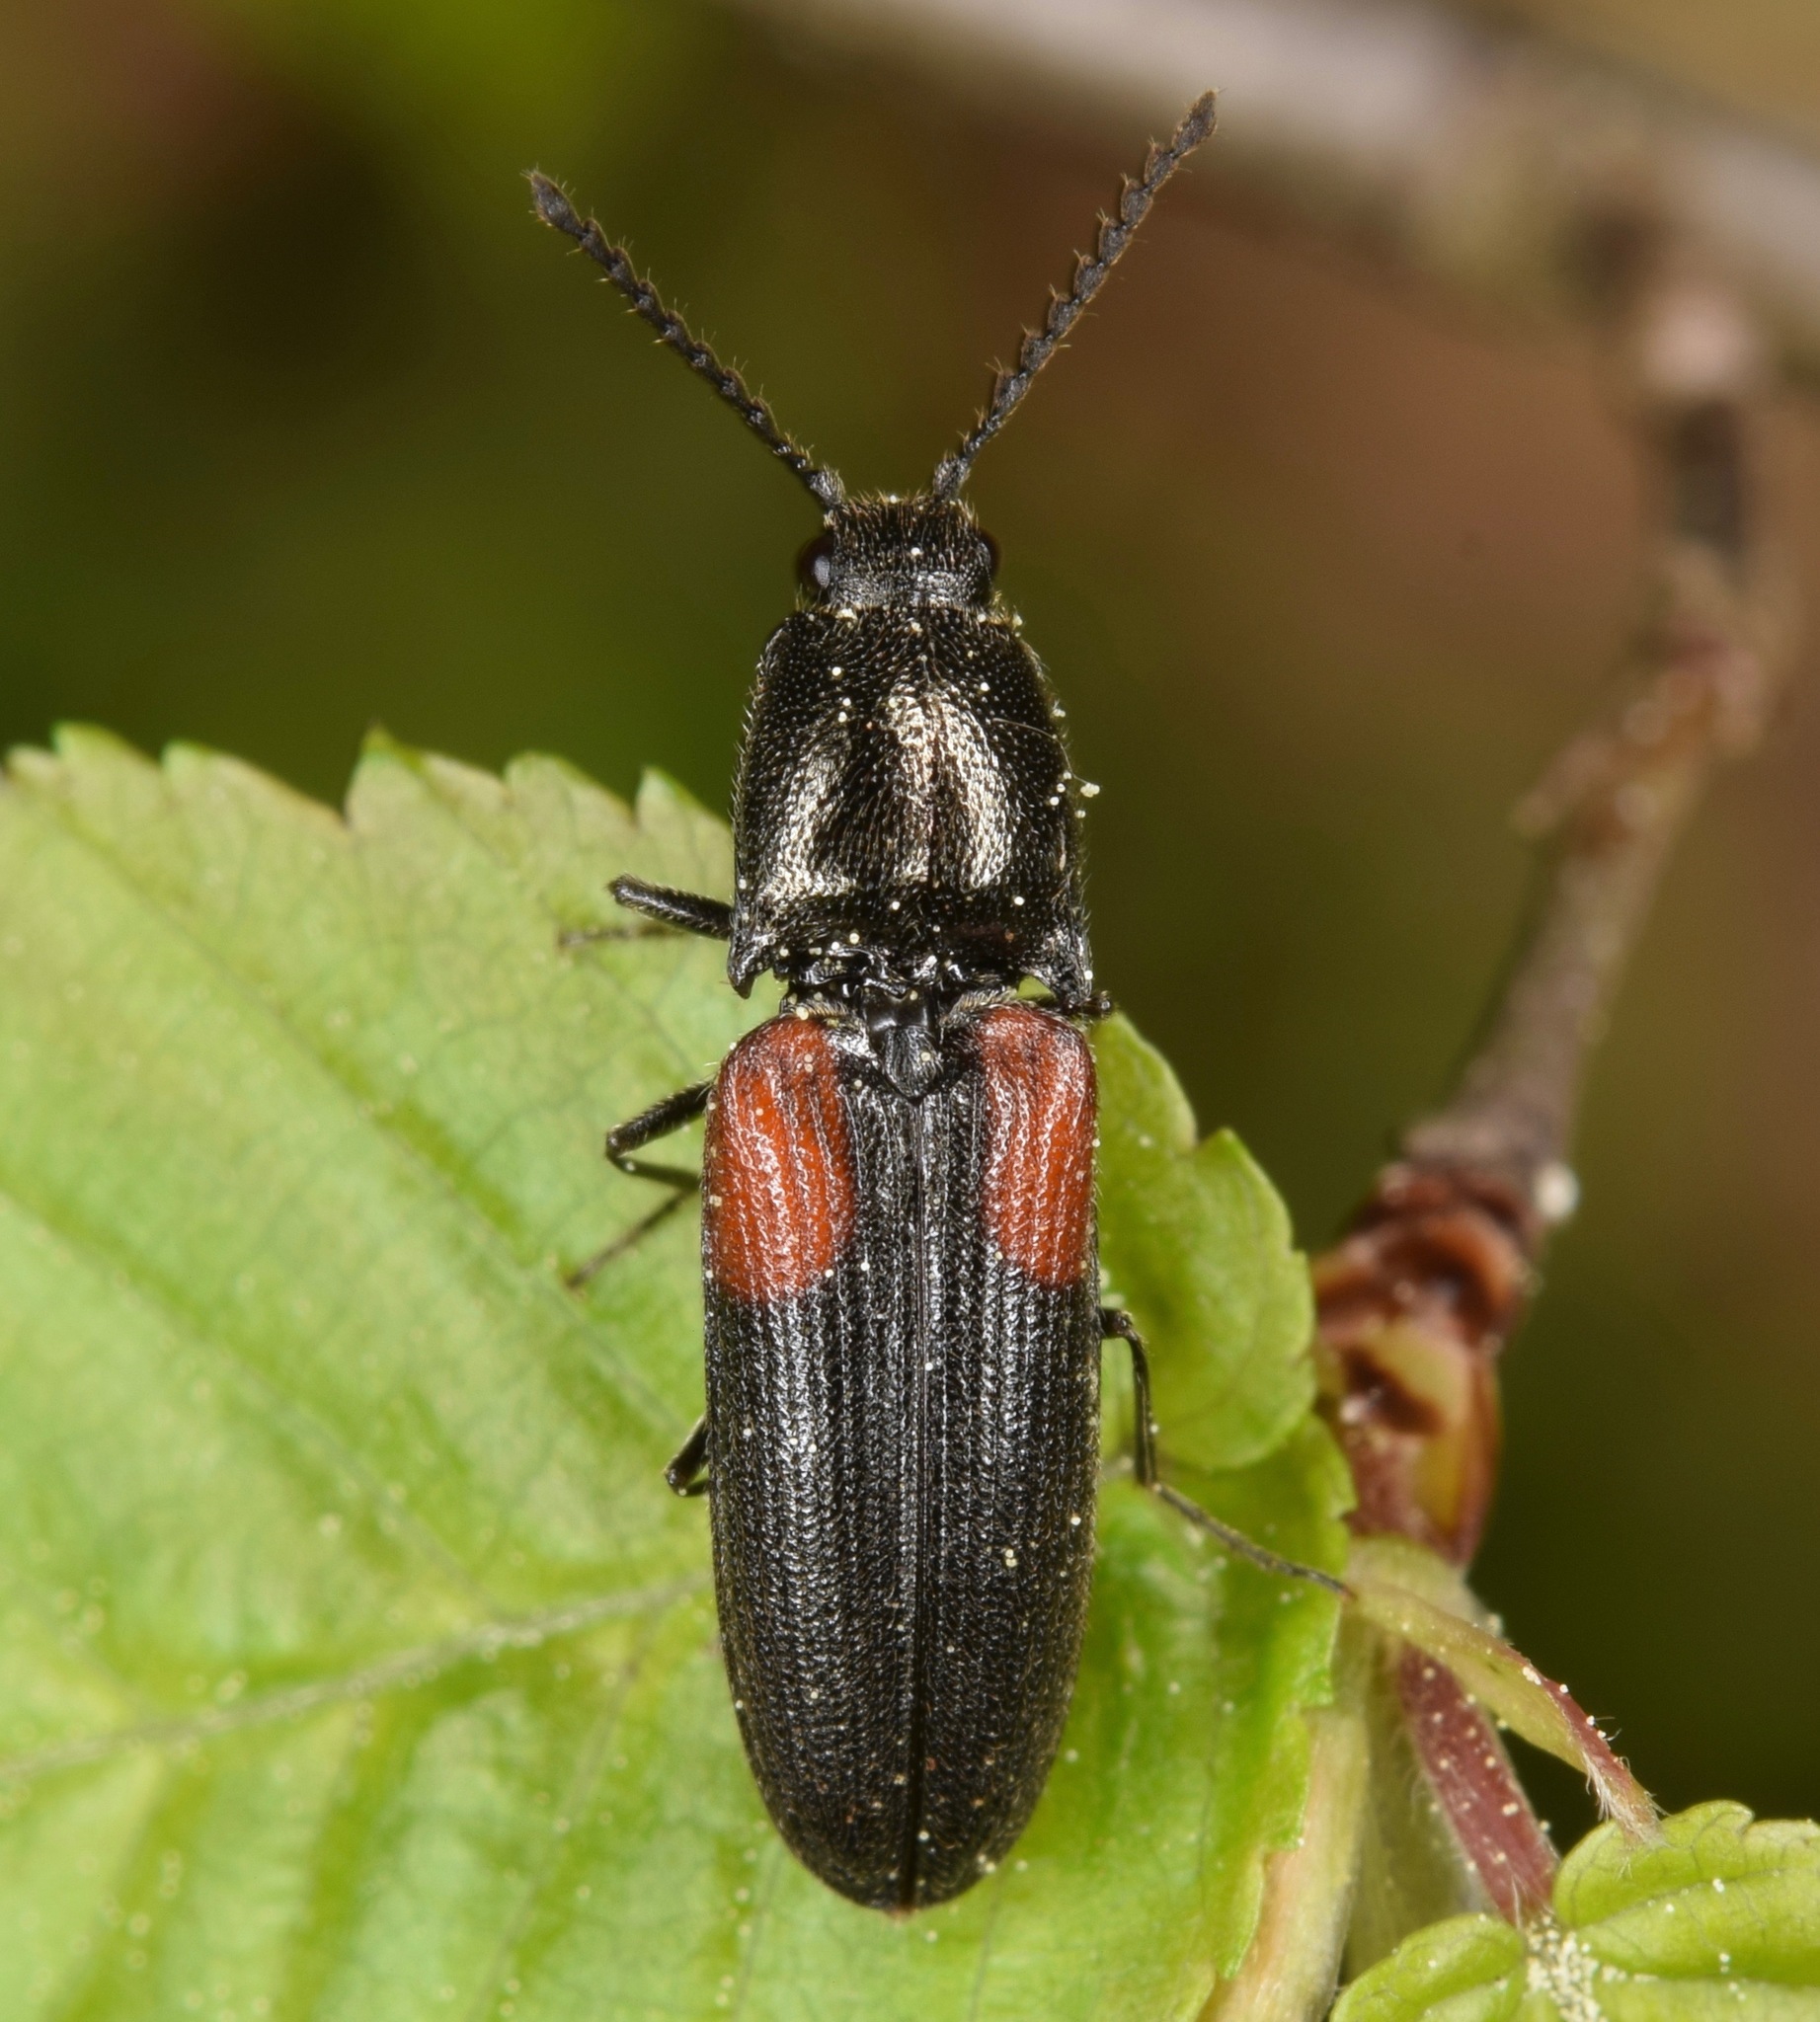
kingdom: Animalia
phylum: Arthropoda
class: Insecta
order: Coleoptera
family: Elateridae
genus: Gambrinus
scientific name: Gambrinus
